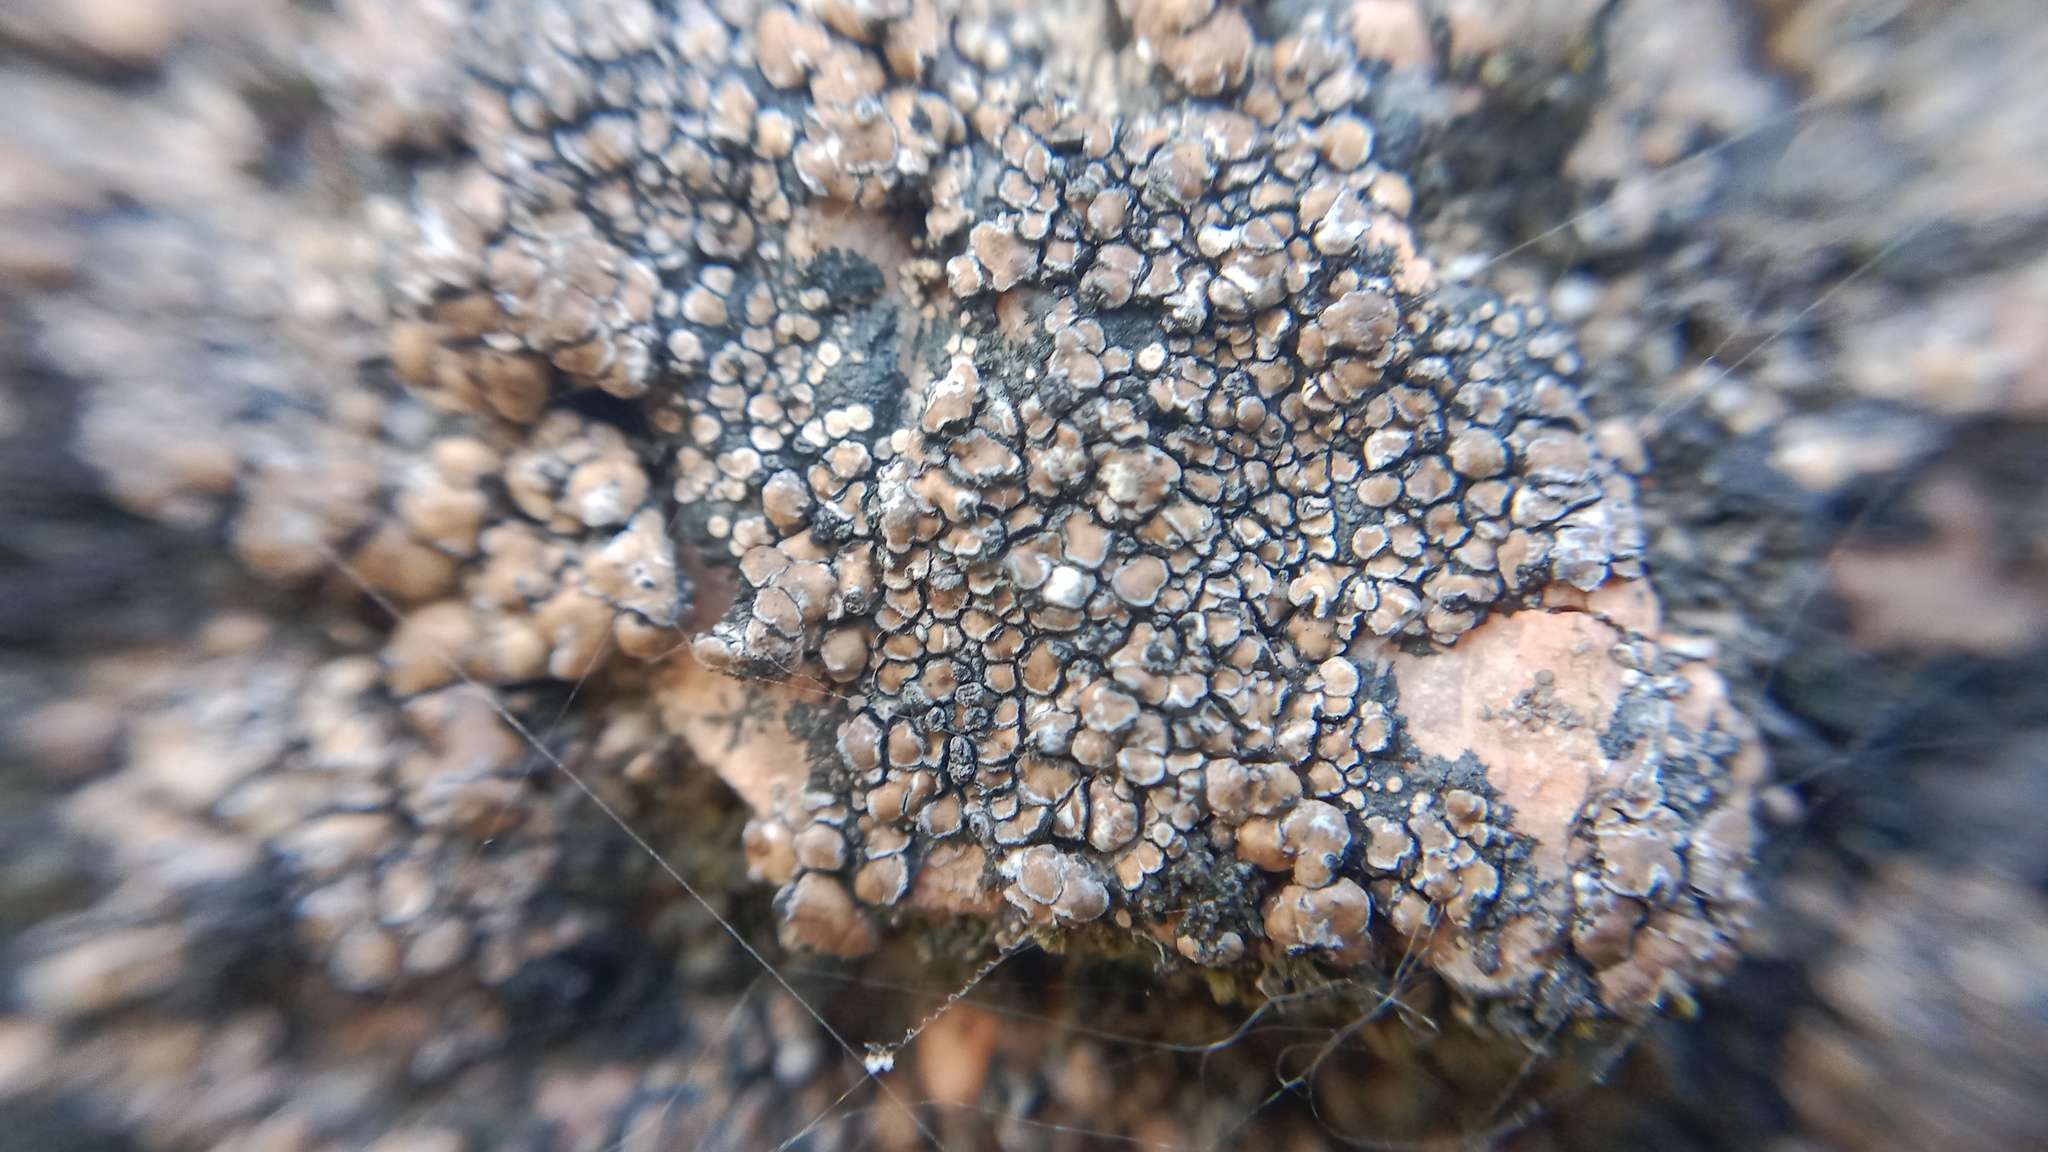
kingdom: Fungi
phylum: Ascomycota
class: Lecanoromycetes
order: Lecideales
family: Lecideaceae
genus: Lecidea
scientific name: Lecidea fuscoatra
